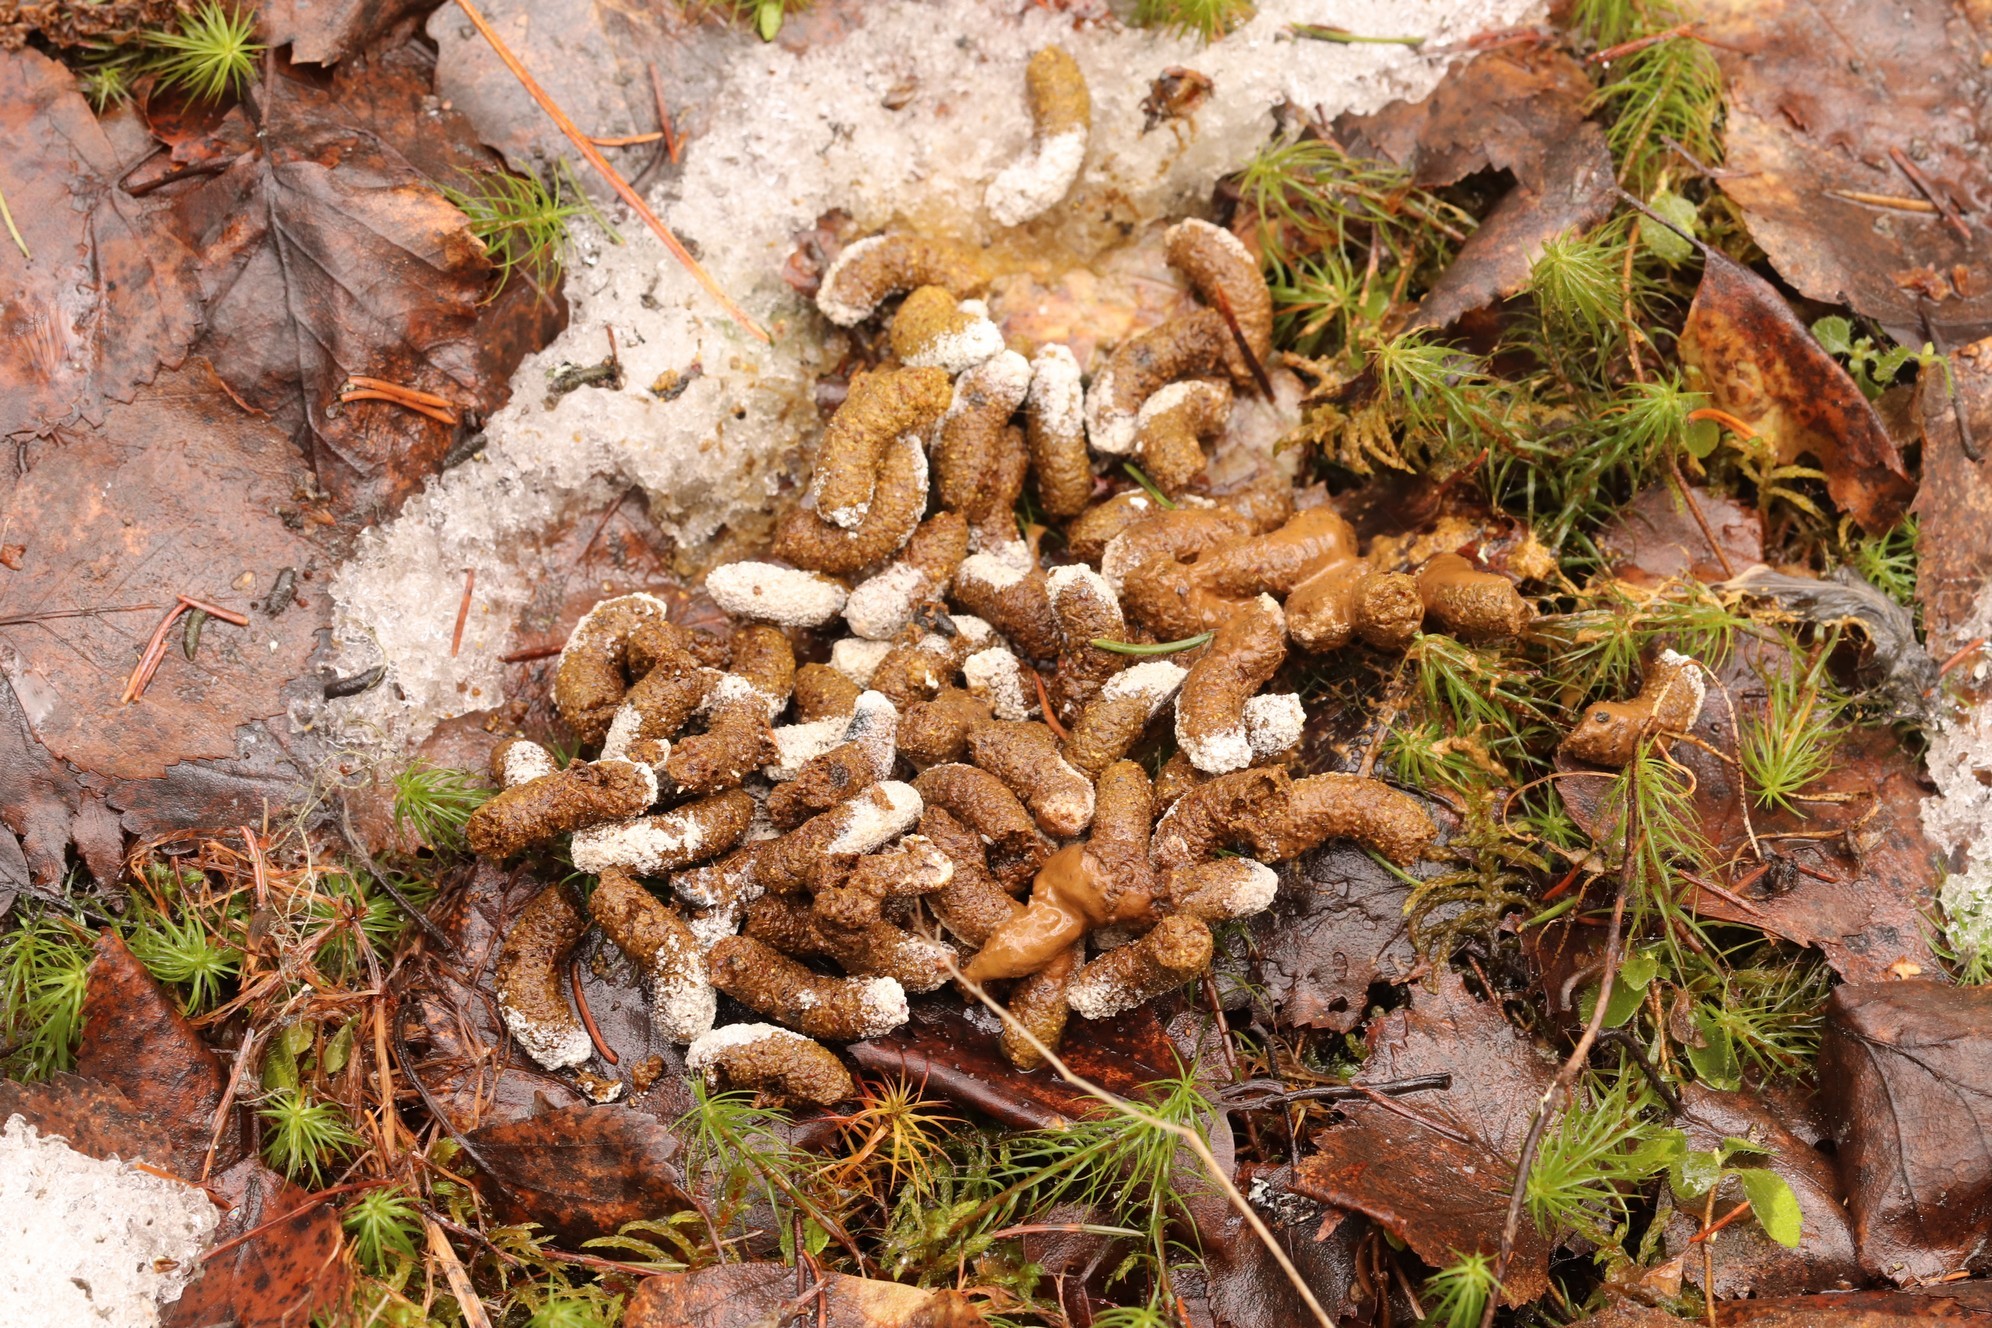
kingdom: Animalia
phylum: Chordata
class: Aves
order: Galliformes
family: Phasianidae
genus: Tetrastes
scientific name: Tetrastes bonasia
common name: Hazel grouse
